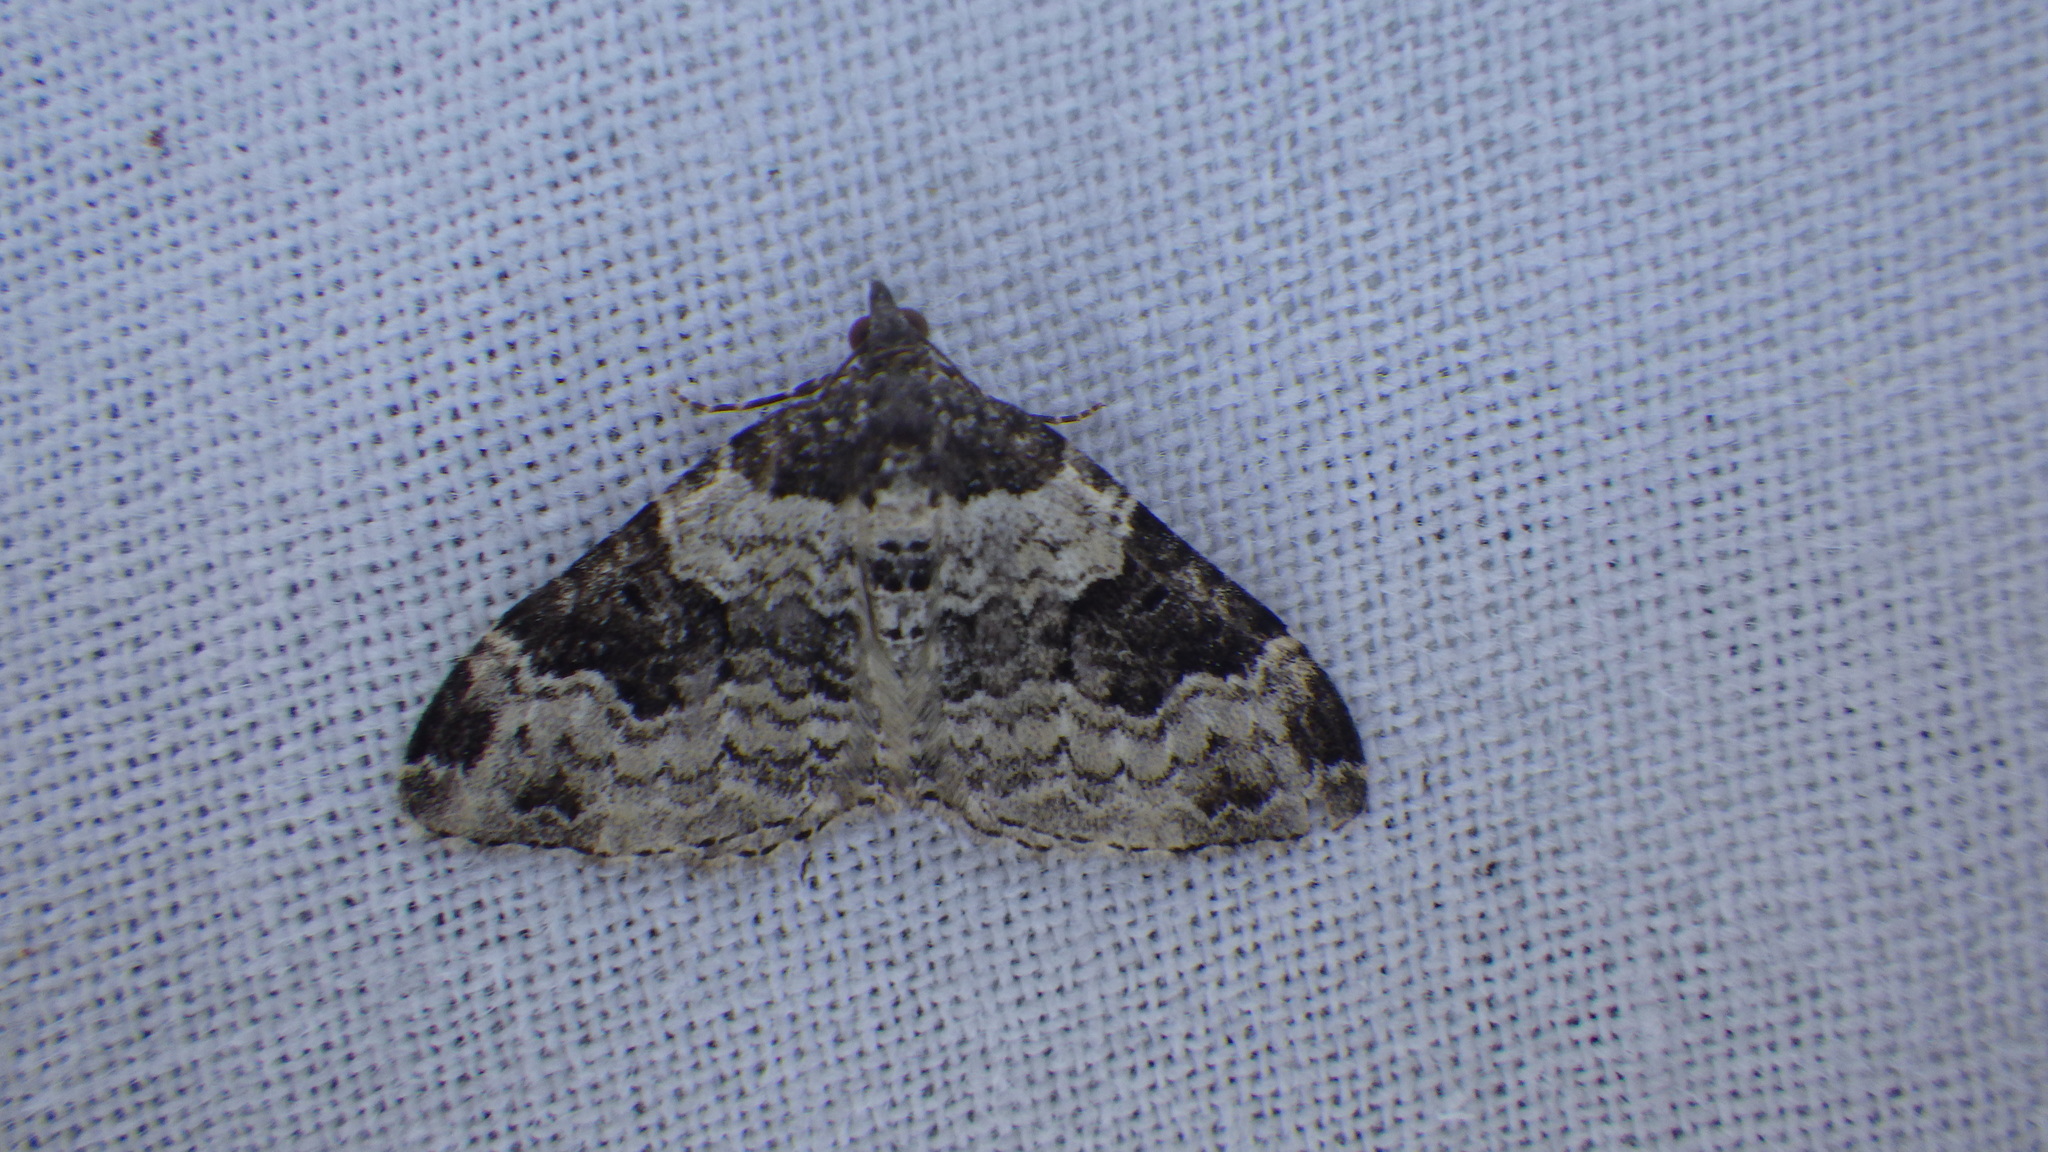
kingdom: Animalia
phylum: Arthropoda
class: Insecta
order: Lepidoptera
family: Geometridae
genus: Xanthorhoe
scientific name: Xanthorhoe fluctuata
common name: Garden carpet
